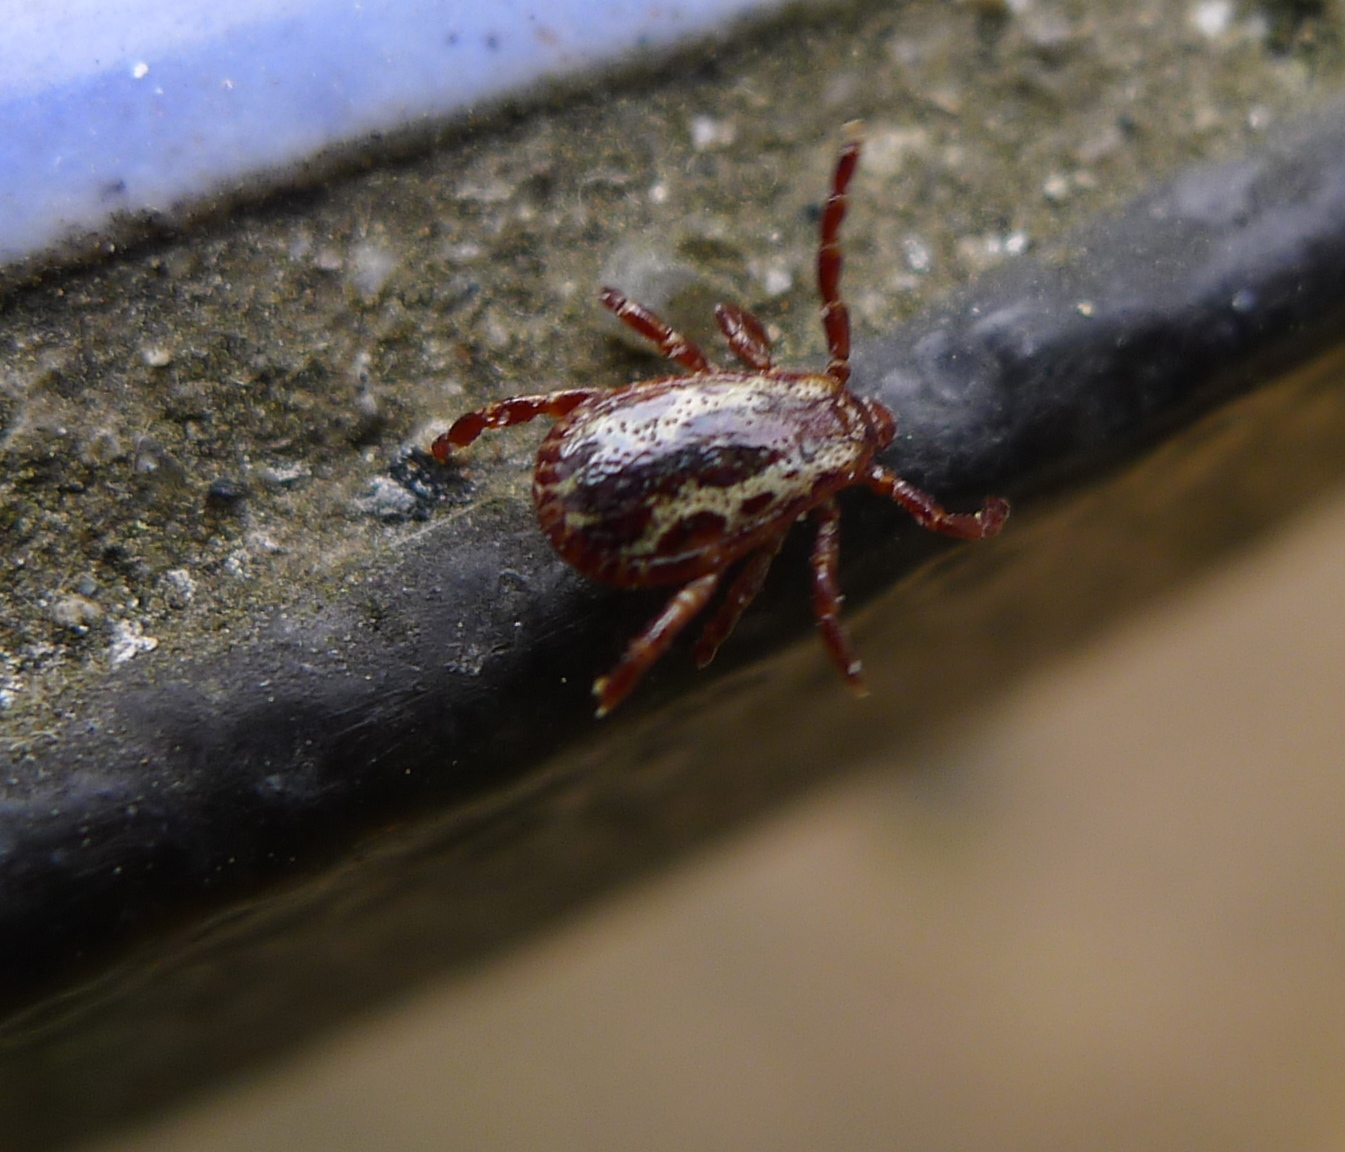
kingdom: Animalia
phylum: Arthropoda
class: Arachnida
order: Ixodida
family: Ixodidae
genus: Dermacentor
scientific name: Dermacentor variabilis
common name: American dog tick
